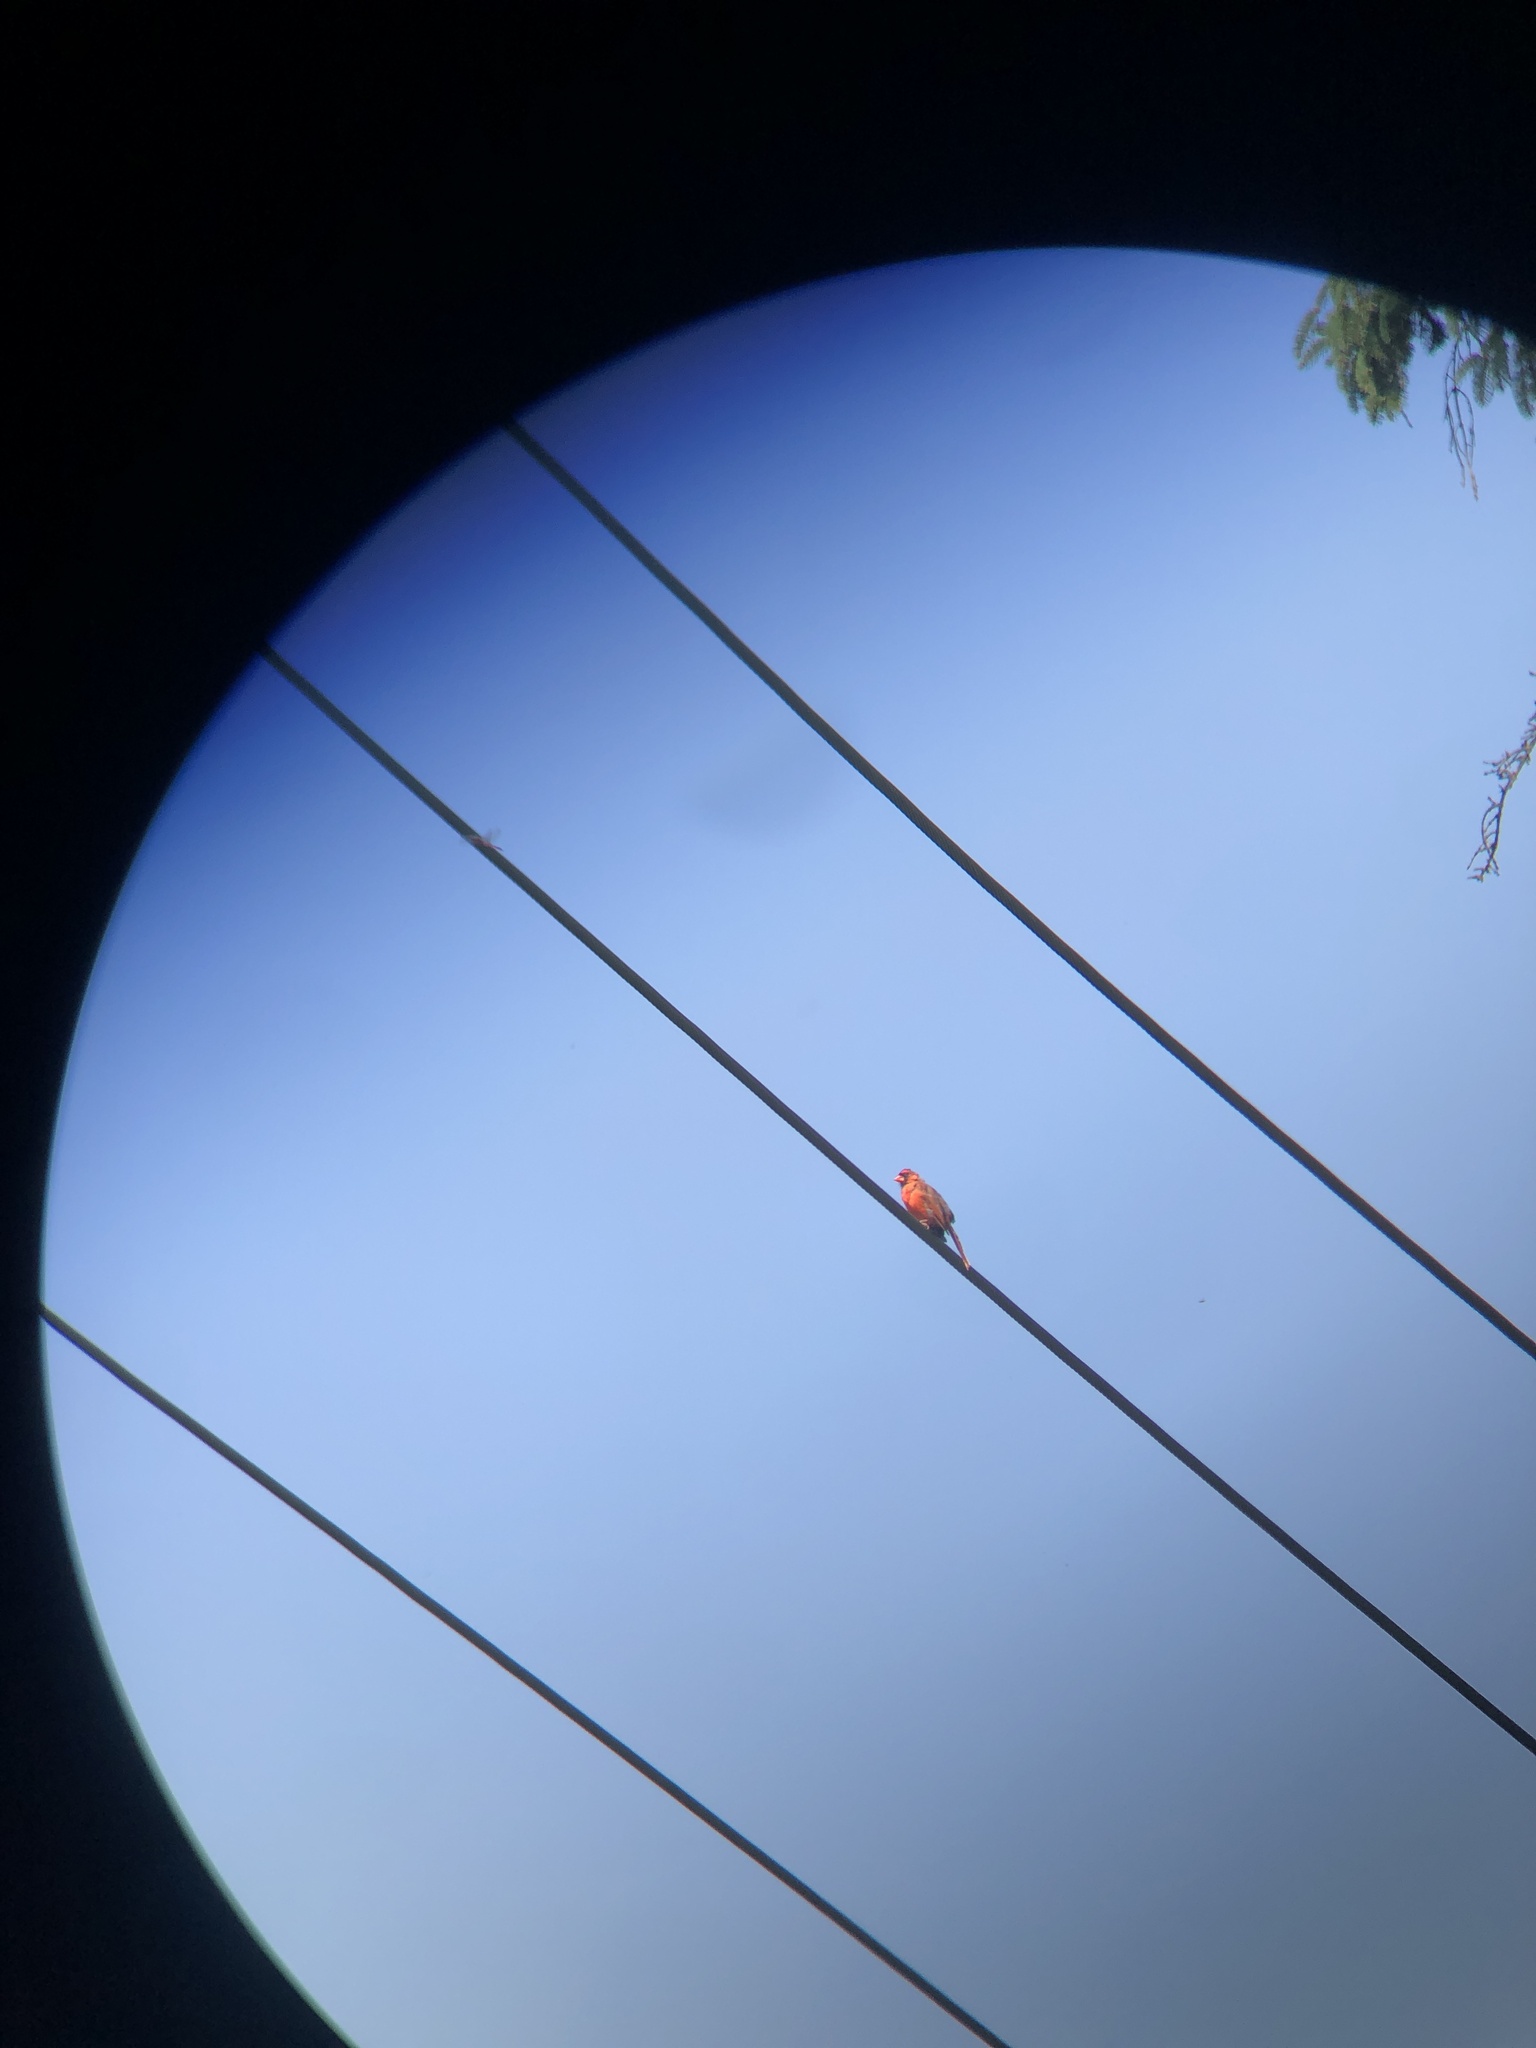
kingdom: Animalia
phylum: Chordata
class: Aves
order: Passeriformes
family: Cardinalidae
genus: Cardinalis
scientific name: Cardinalis cardinalis
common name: Northern cardinal
